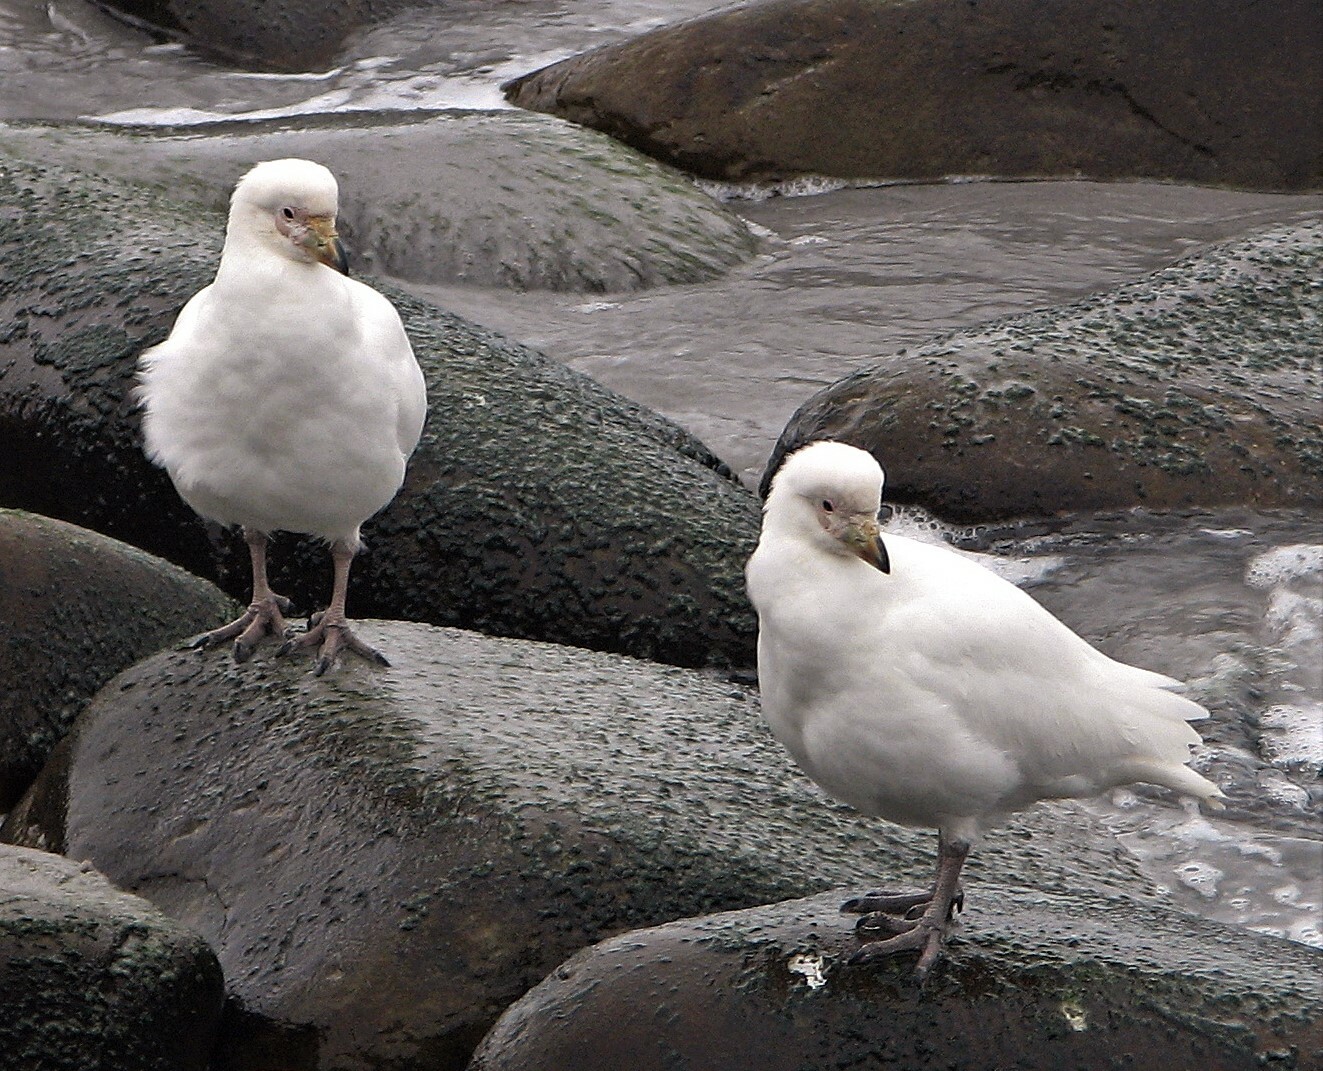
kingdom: Animalia
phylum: Chordata
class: Aves
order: Charadriiformes
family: Chionidae
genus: Chionis
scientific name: Chionis albus
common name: Snowy sheathbill
